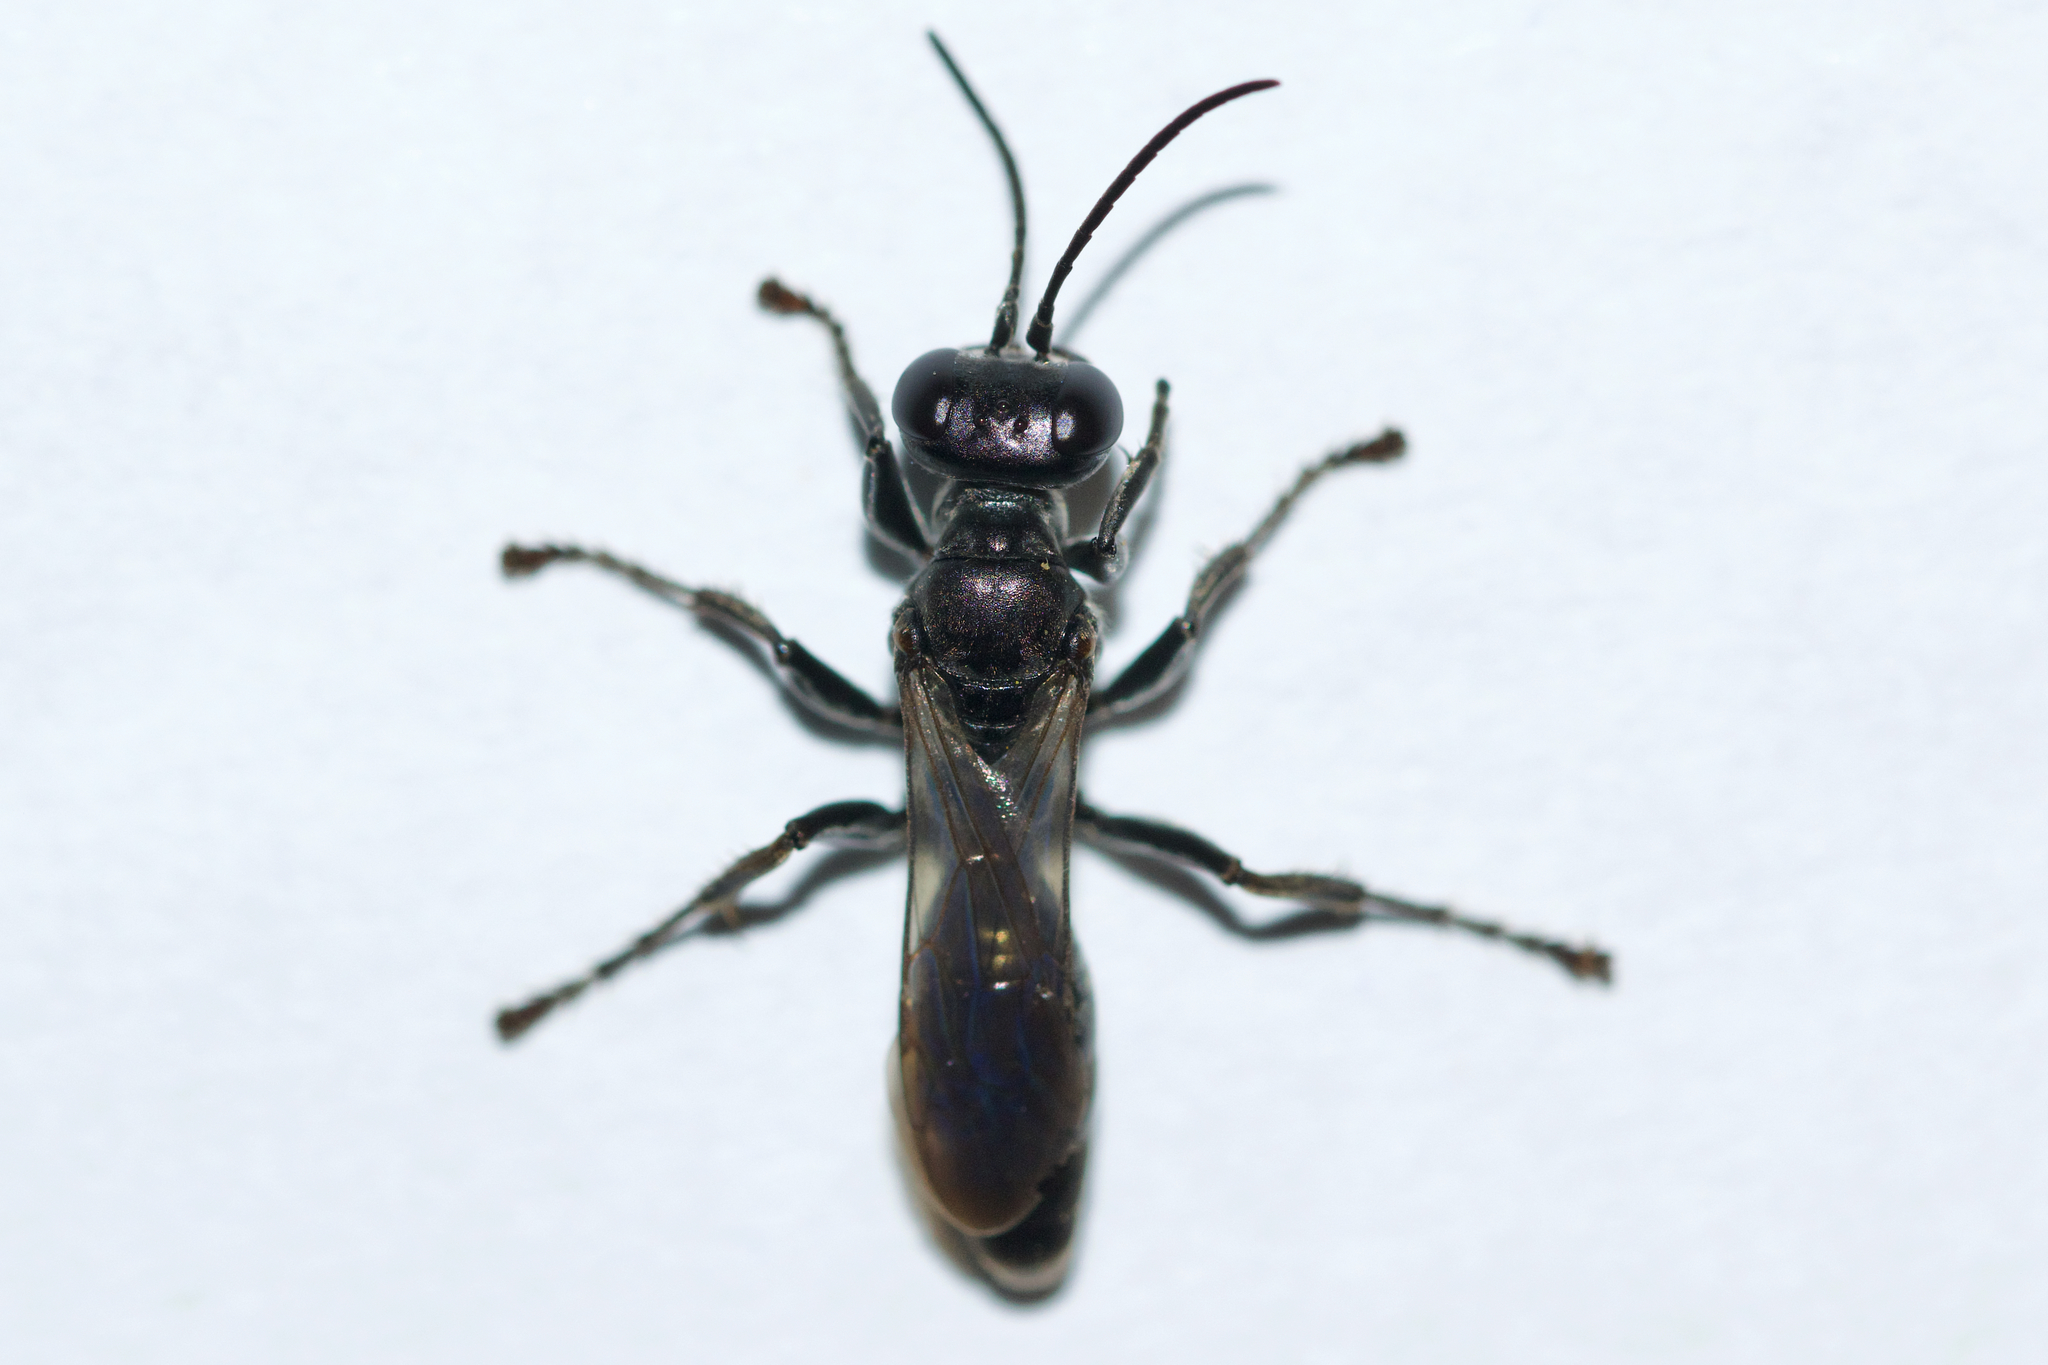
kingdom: Animalia
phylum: Arthropoda
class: Insecta
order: Hymenoptera
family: Crabronidae
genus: Lyroda
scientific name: Lyroda subita
